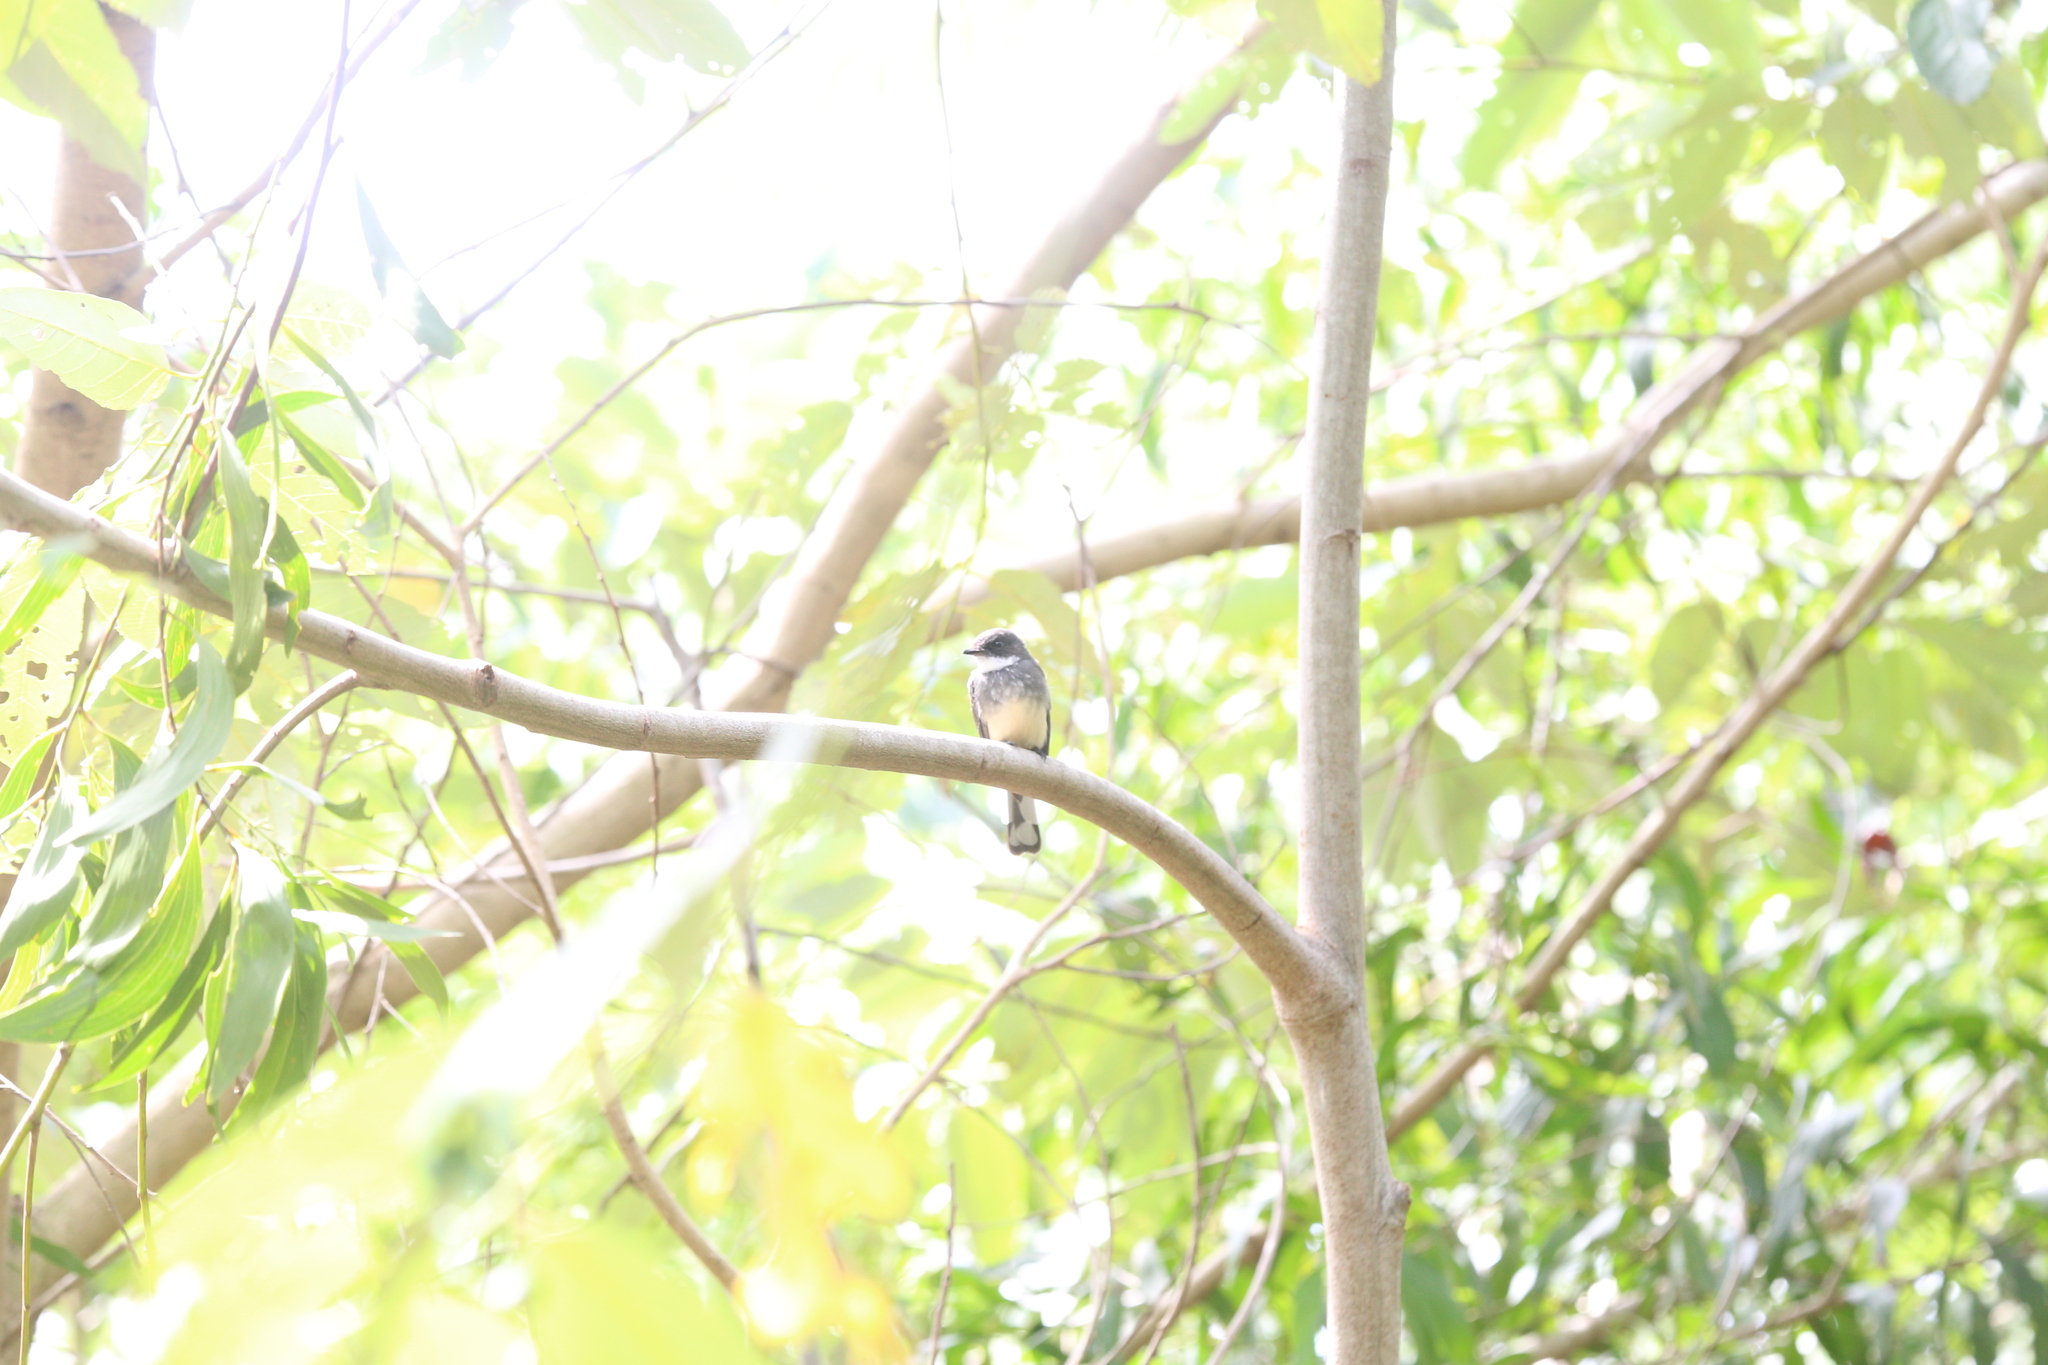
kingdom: Animalia
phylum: Chordata
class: Aves
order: Passeriformes
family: Rhipiduridae
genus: Rhipidura
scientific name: Rhipidura rufiventris
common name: Northern fantail
